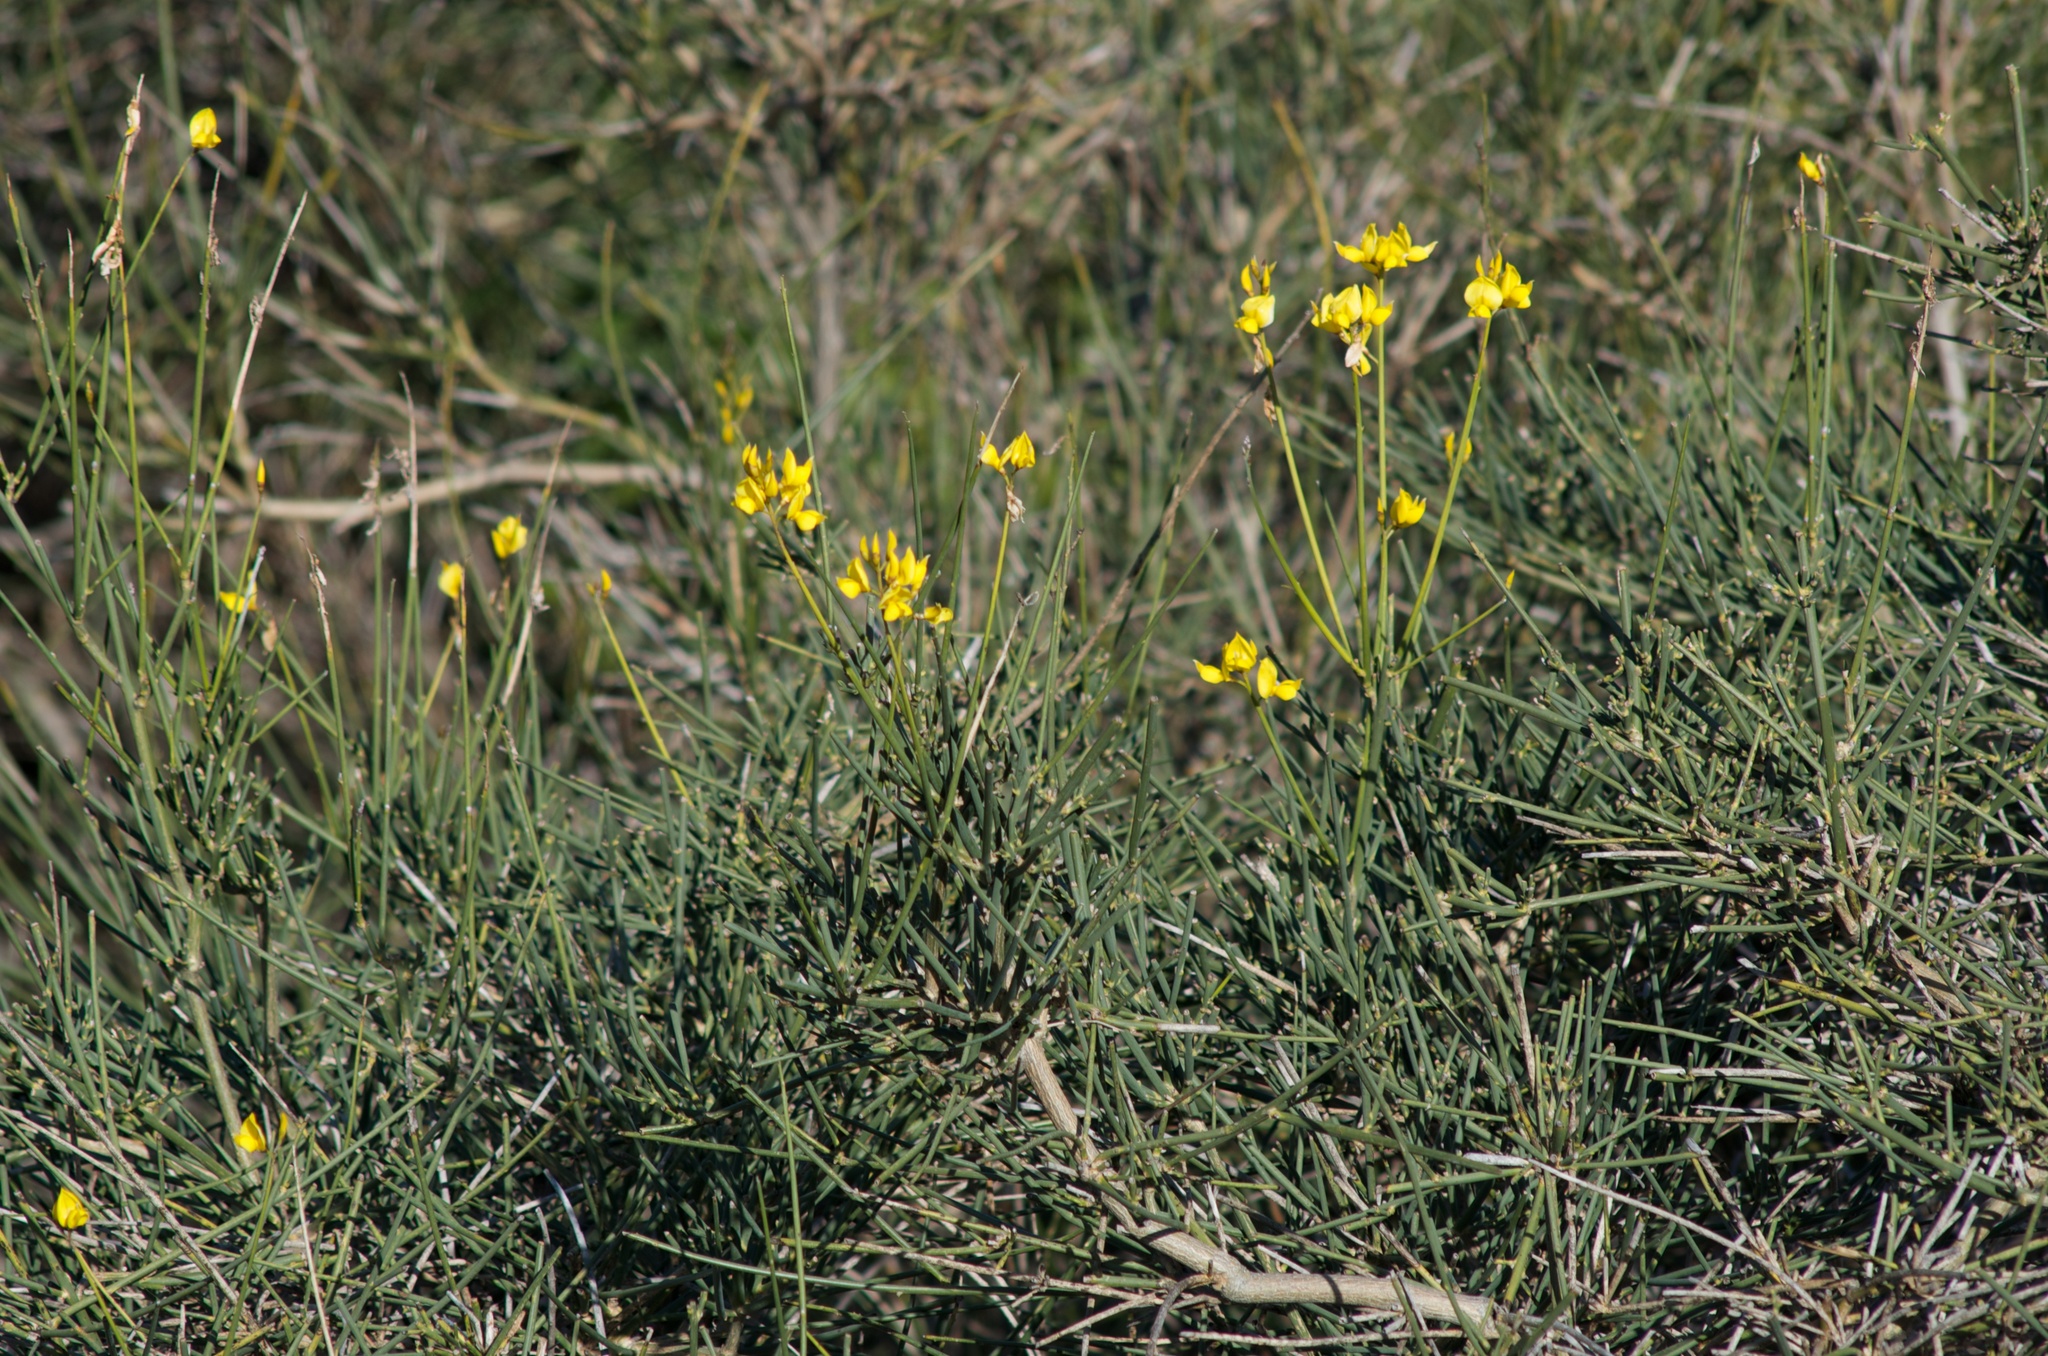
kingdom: Plantae
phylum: Tracheophyta
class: Magnoliopsida
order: Fabales
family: Fabaceae
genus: Spartium
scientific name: Spartium junceum
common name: Spanish broom
